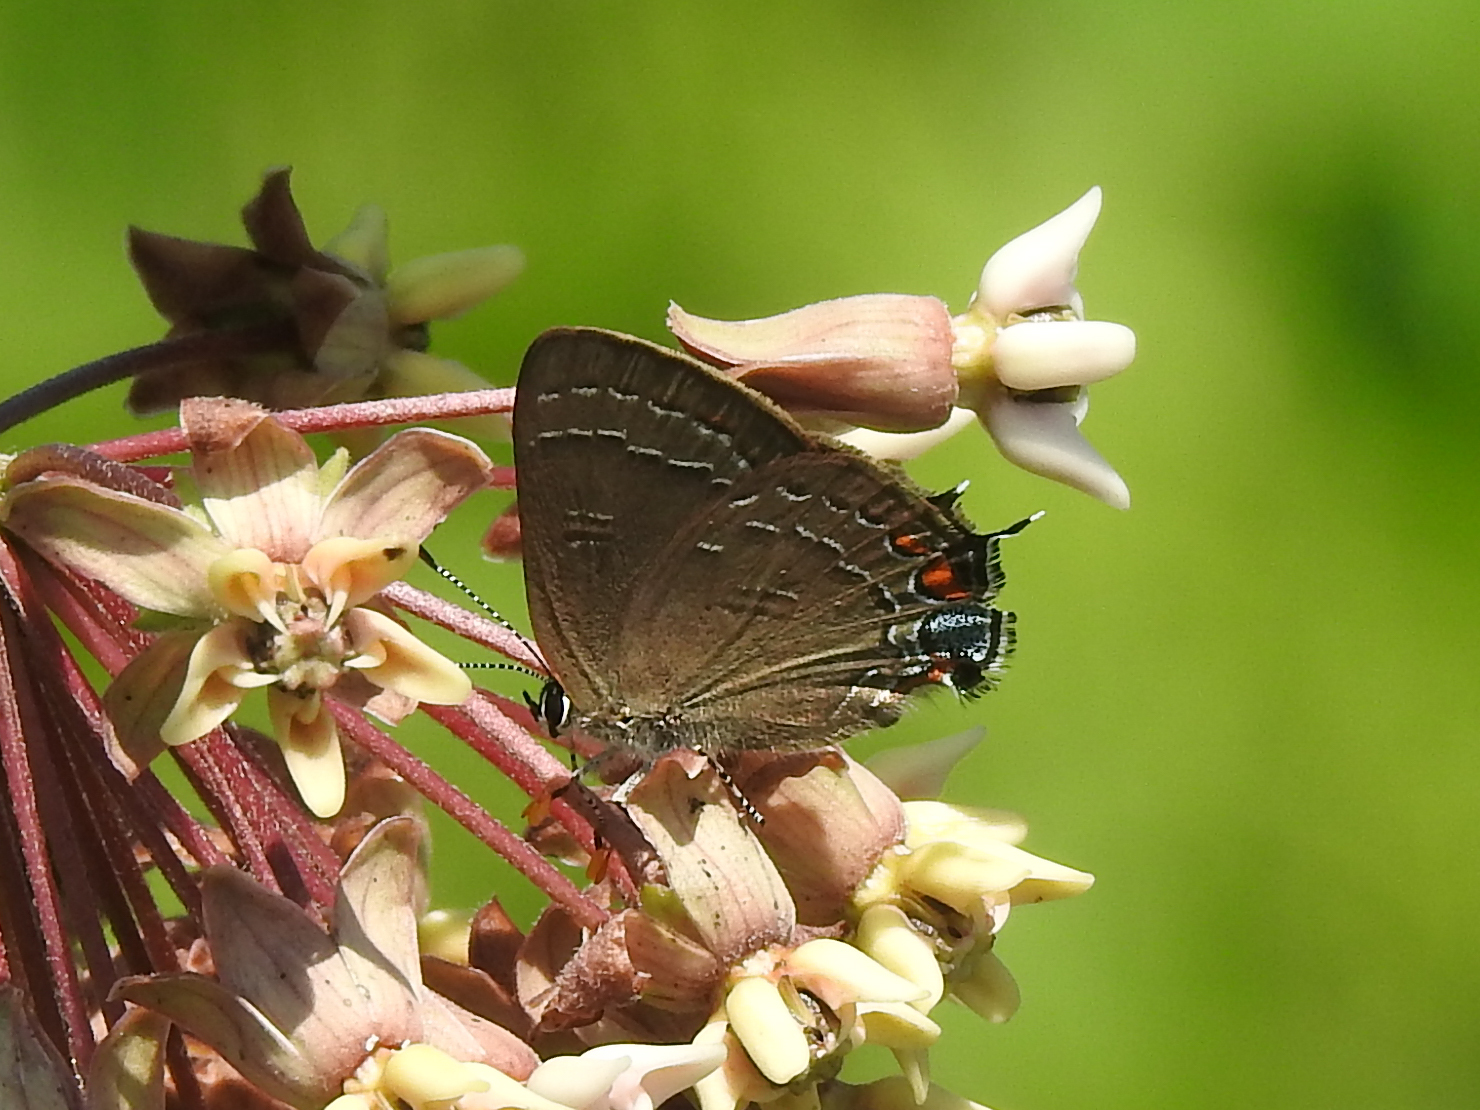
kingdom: Animalia
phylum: Arthropoda
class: Insecta
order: Lepidoptera
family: Lycaenidae
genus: Satyrium
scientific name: Satyrium calanus
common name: Banded hairstreak
